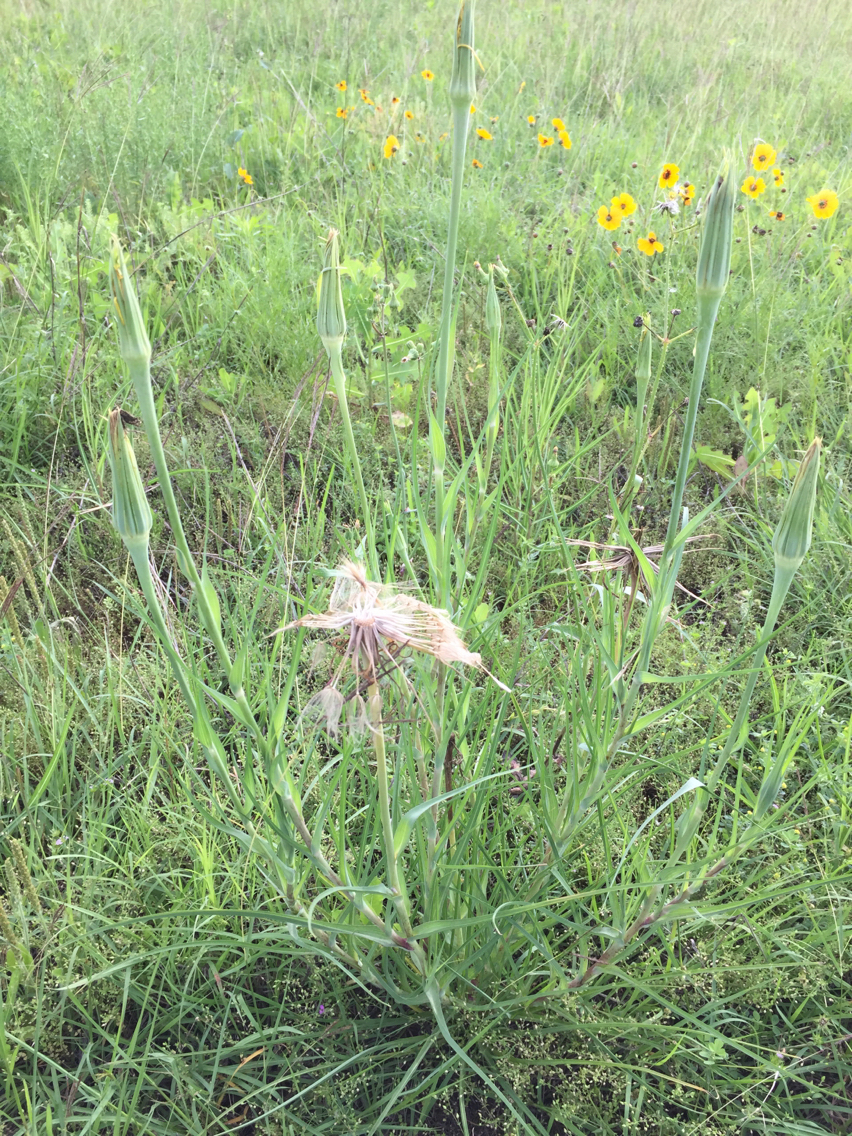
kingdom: Plantae
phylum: Tracheophyta
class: Magnoliopsida
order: Asterales
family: Asteraceae
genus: Tragopogon
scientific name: Tragopogon dubius
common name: Yellow salsify
